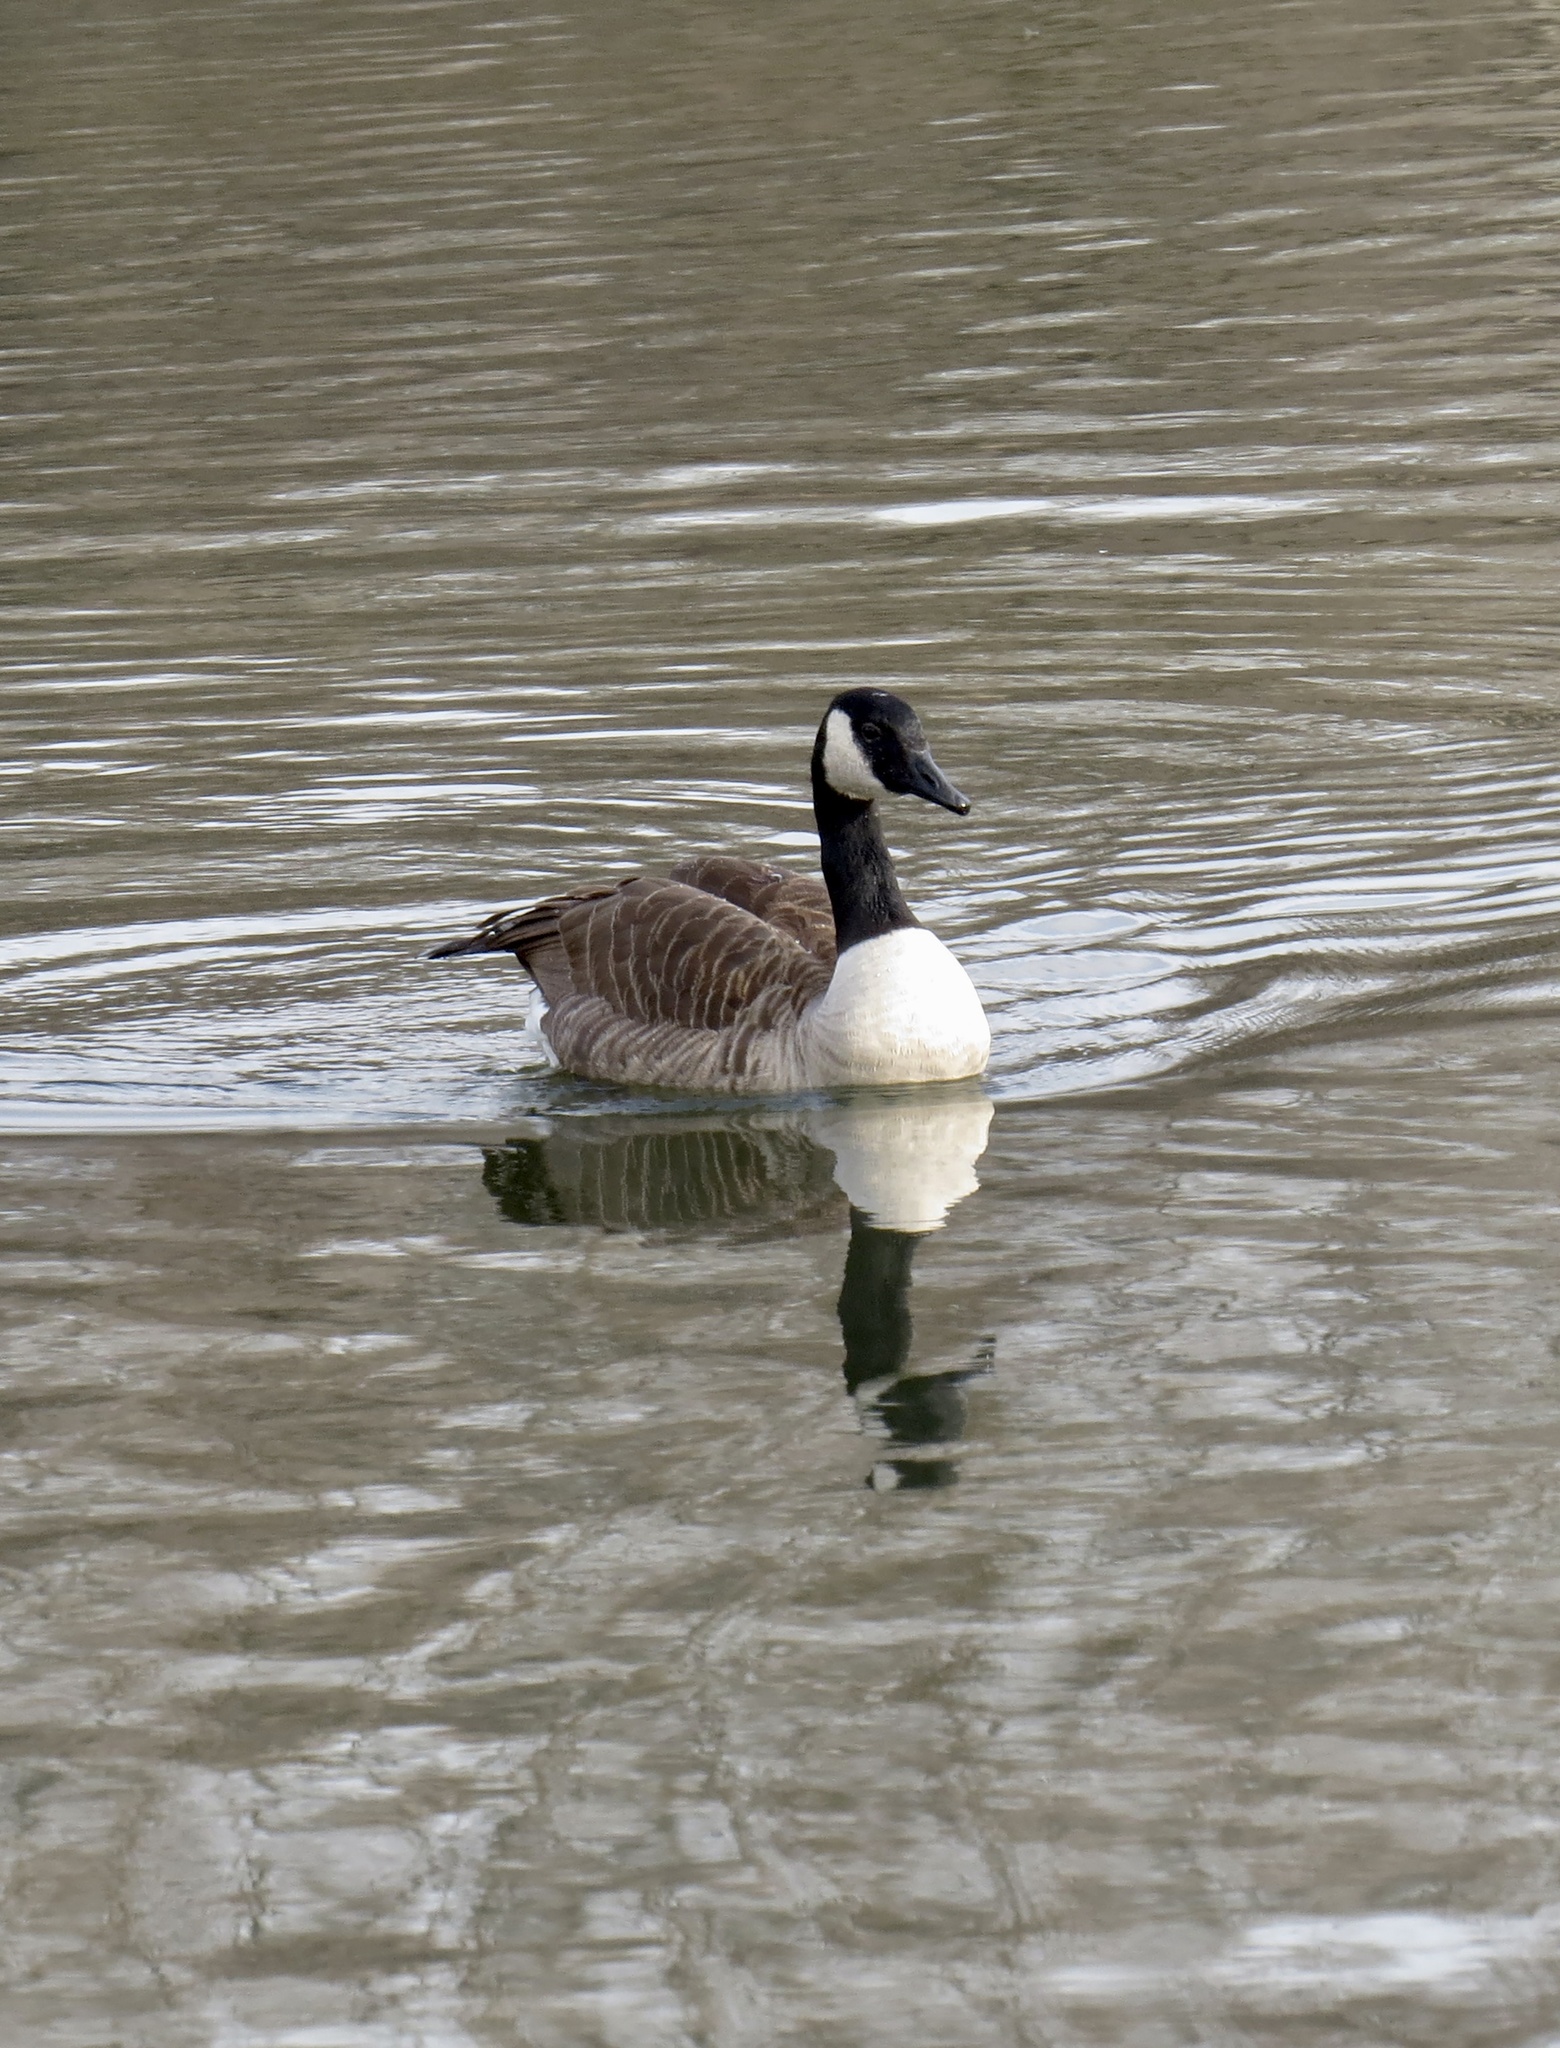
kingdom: Animalia
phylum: Chordata
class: Aves
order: Anseriformes
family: Anatidae
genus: Branta
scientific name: Branta canadensis
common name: Canada goose
